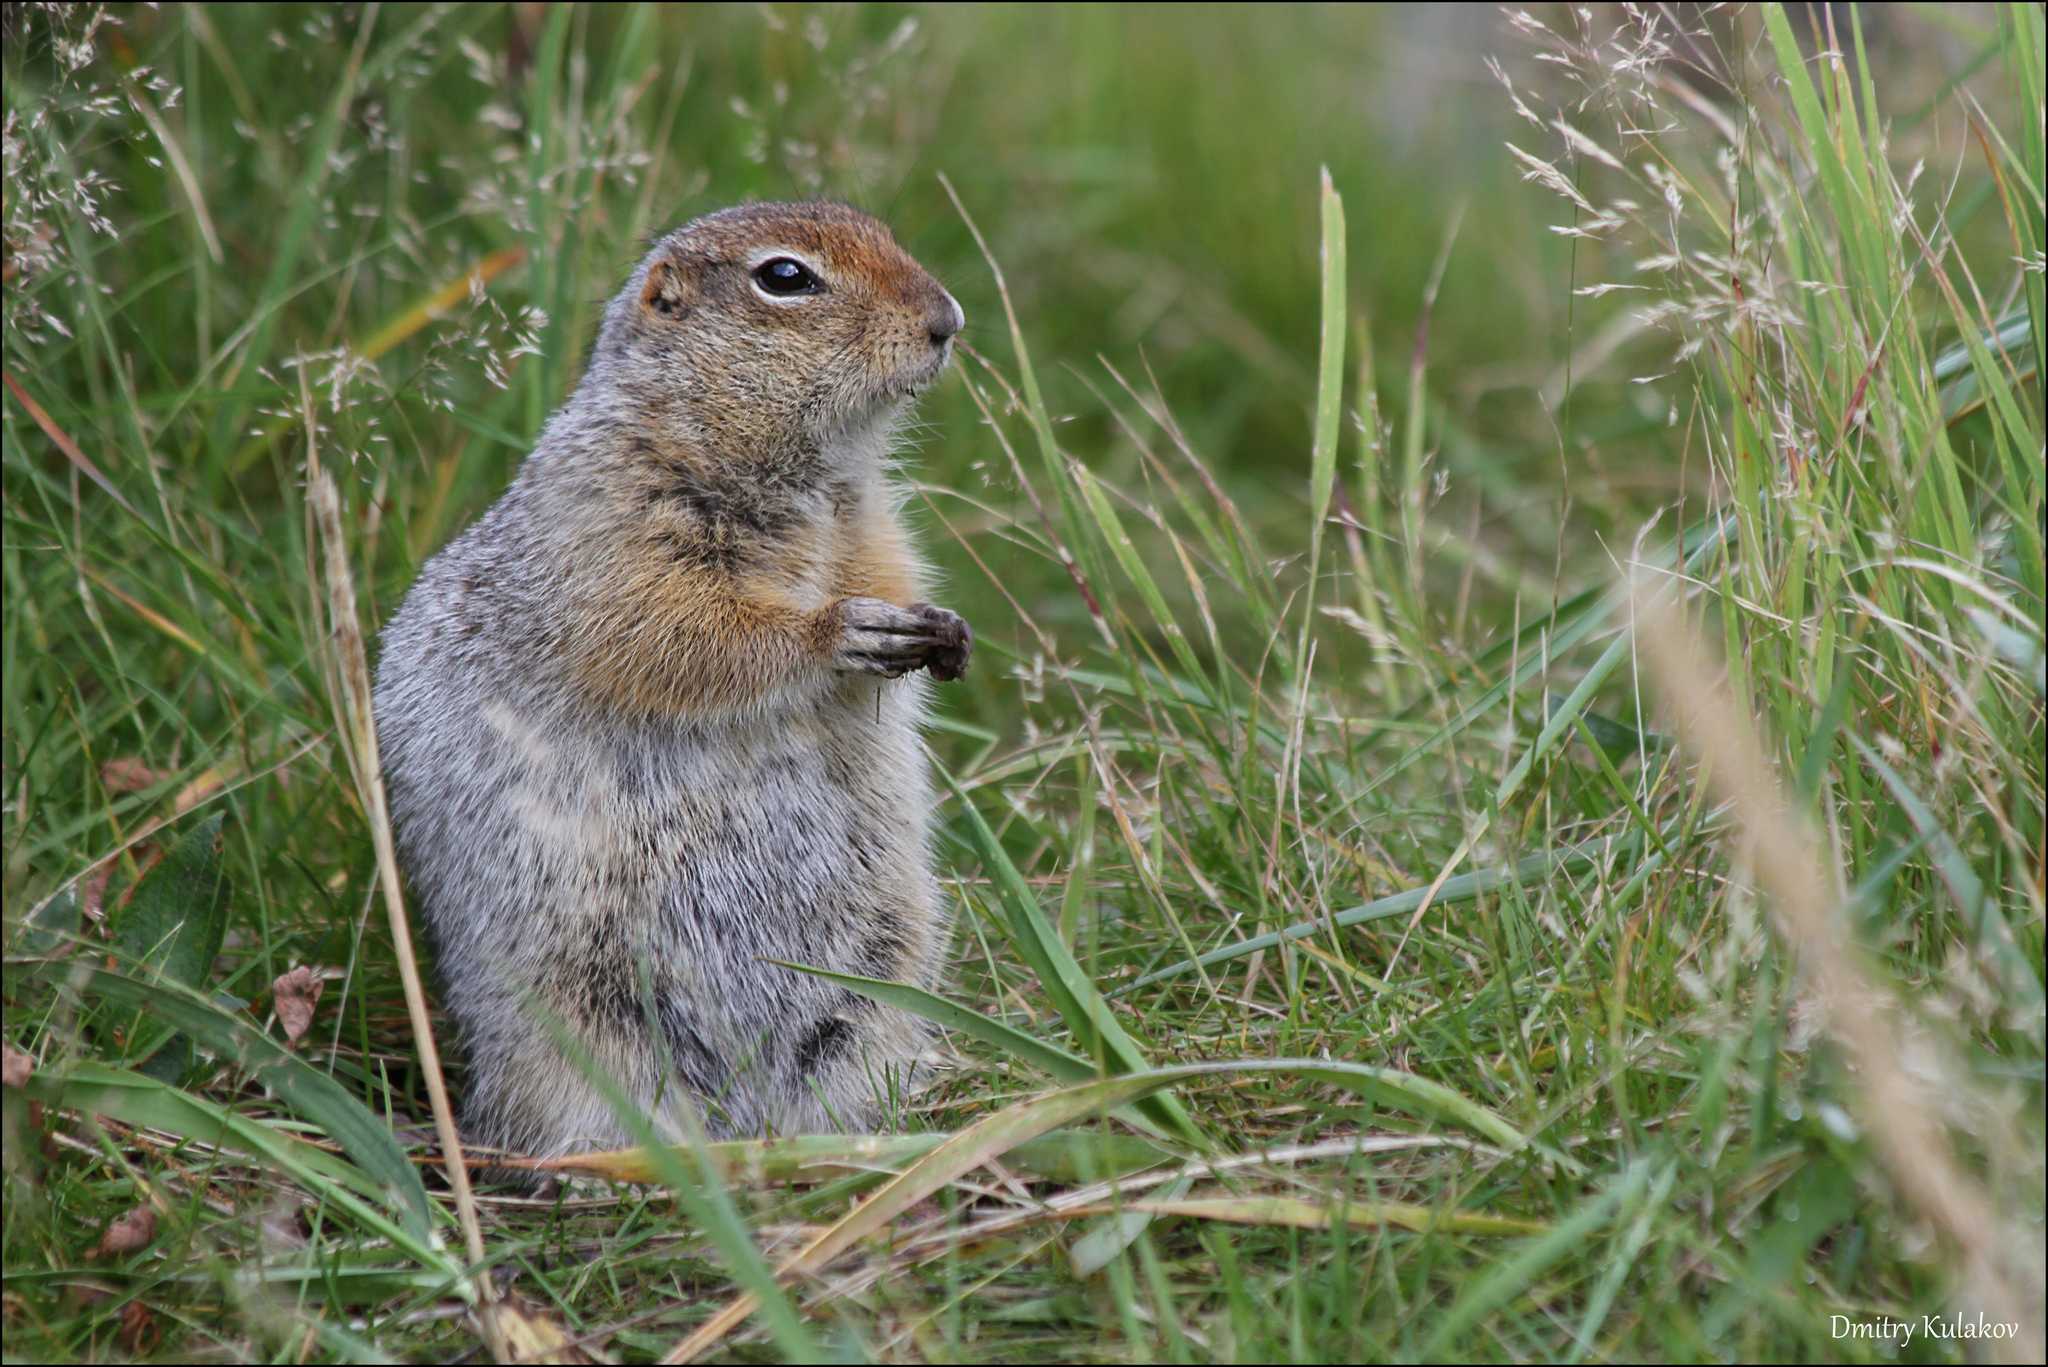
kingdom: Animalia
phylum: Chordata
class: Mammalia
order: Rodentia
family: Sciuridae
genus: Urocitellus
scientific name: Urocitellus parryii
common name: Arctic ground squirrel
